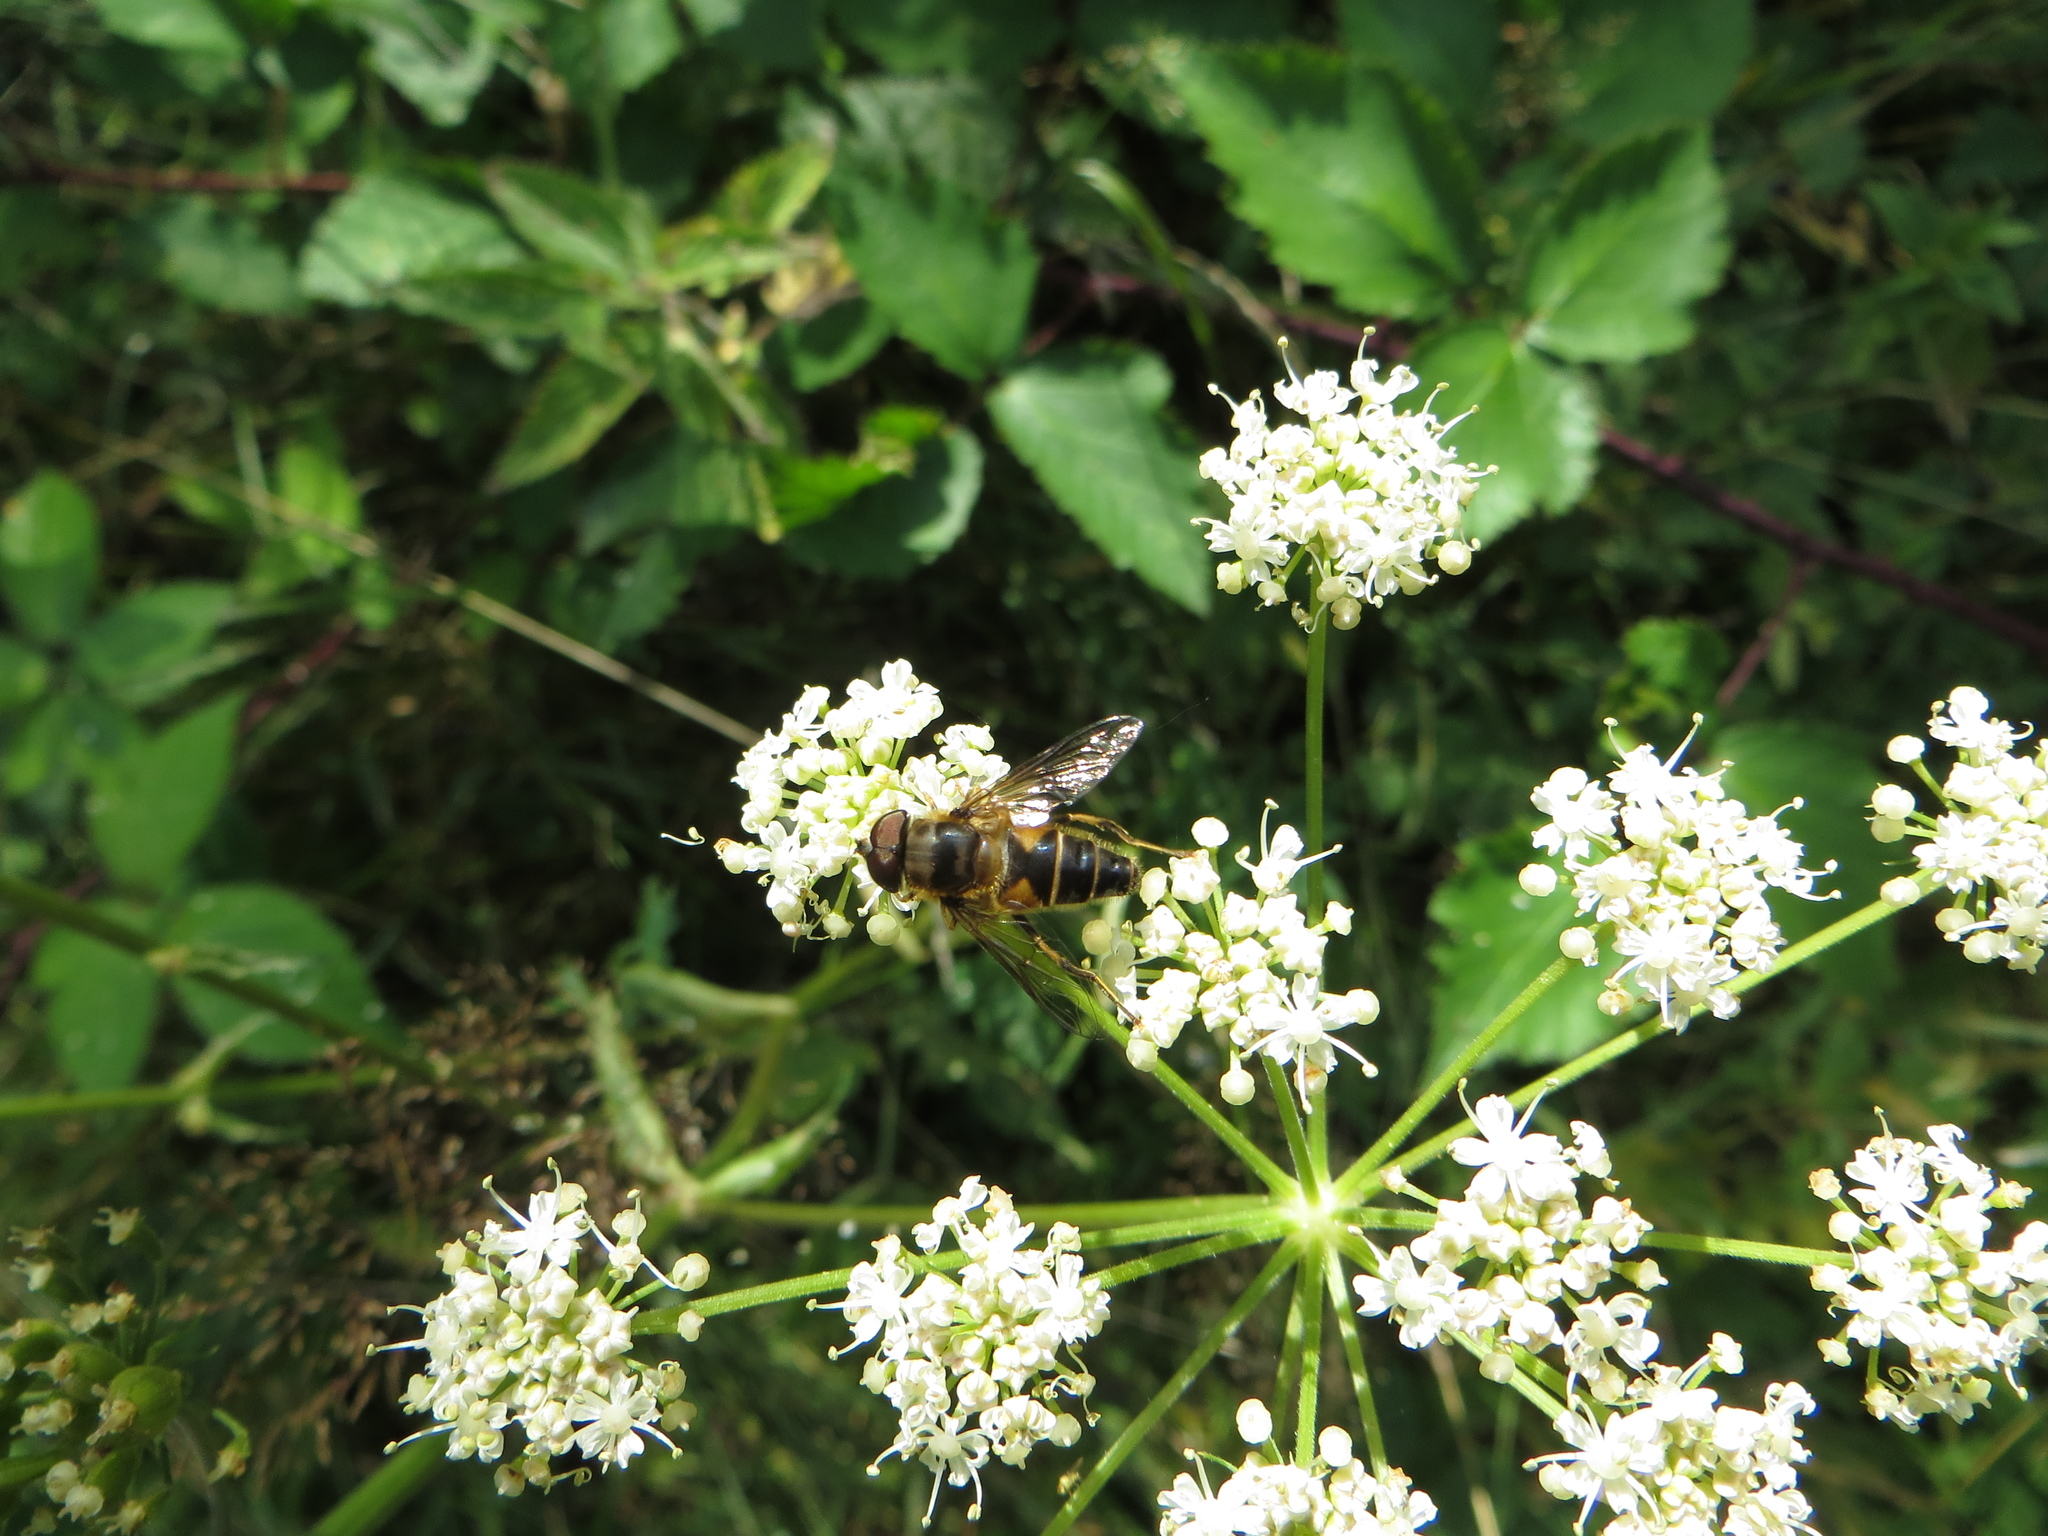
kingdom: Animalia
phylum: Arthropoda
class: Insecta
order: Diptera
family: Syrphidae
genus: Eristalis
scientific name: Eristalis pertinax
